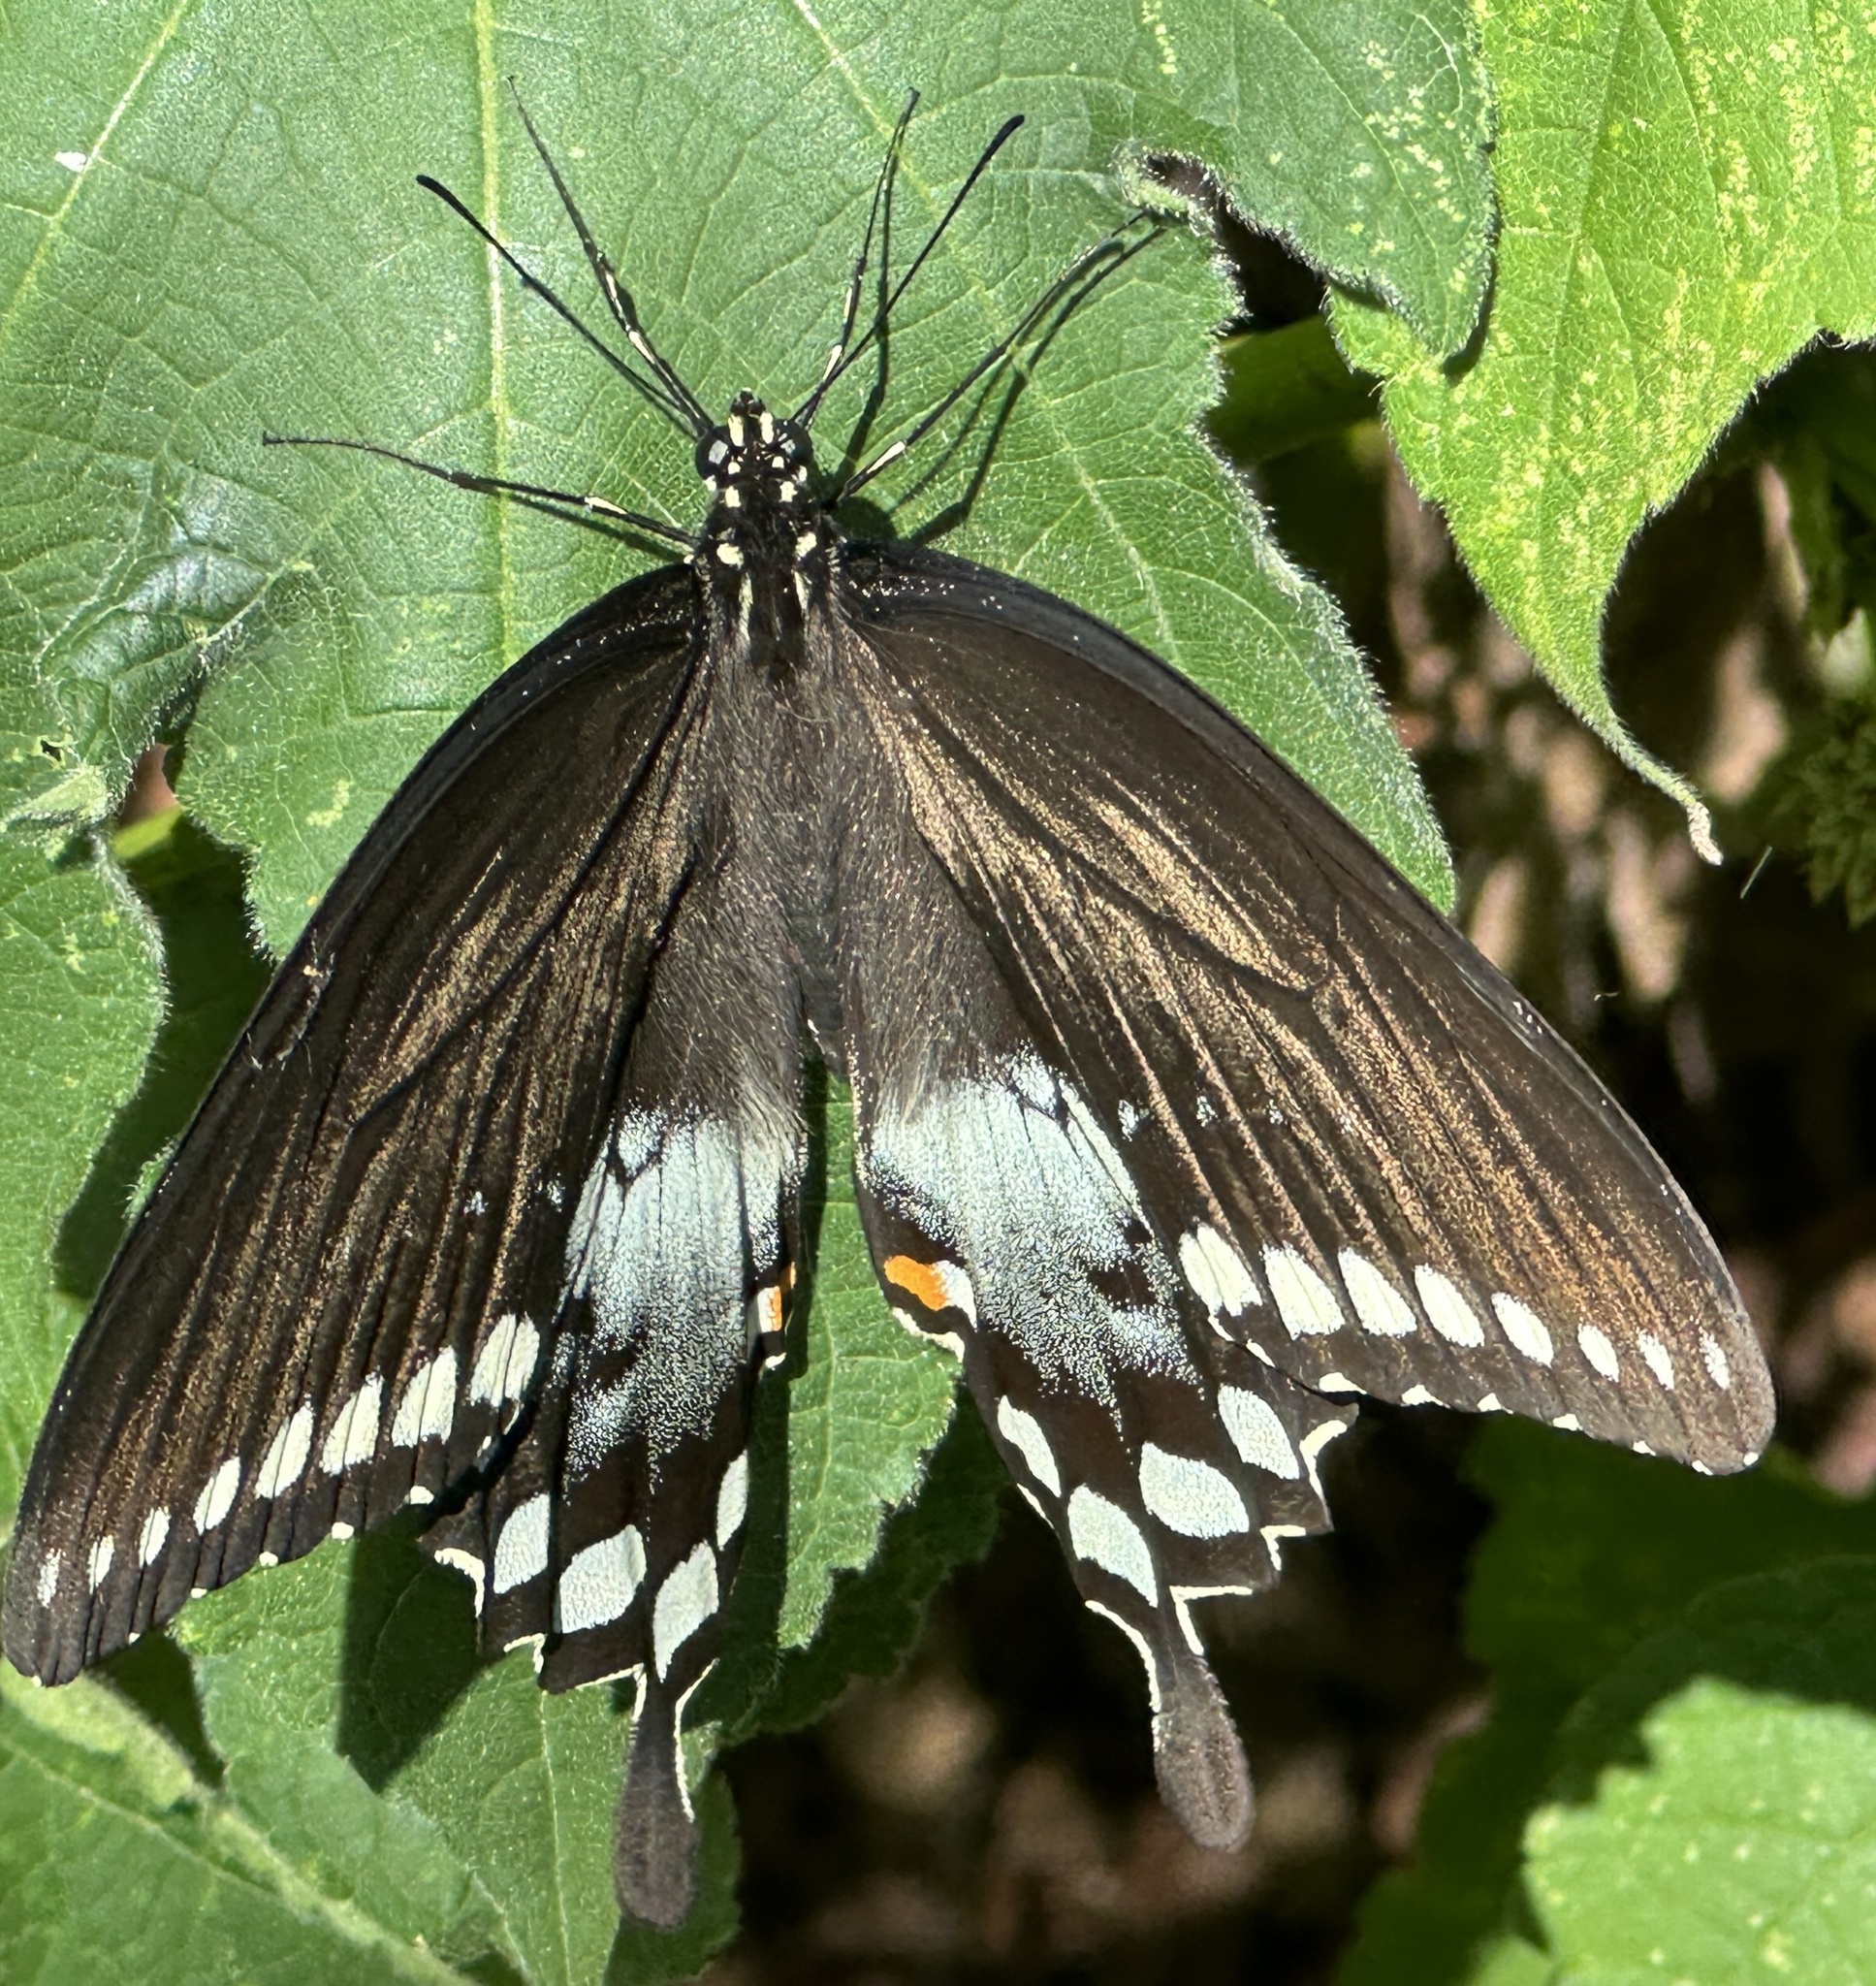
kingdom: Animalia
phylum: Arthropoda
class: Insecta
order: Lepidoptera
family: Papilionidae
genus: Papilio
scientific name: Papilio troilus
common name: Spicebush swallowtail
